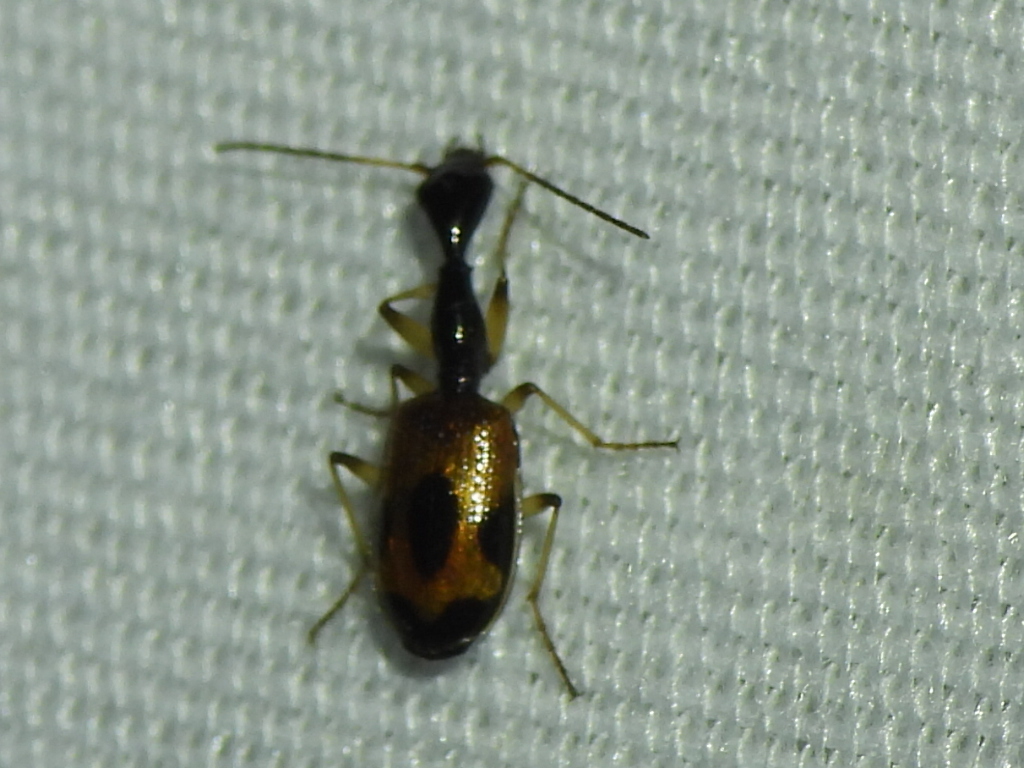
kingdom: Animalia
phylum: Arthropoda
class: Insecta
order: Coleoptera
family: Carabidae
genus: Colliuris
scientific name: Colliuris pensylvanica
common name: Long-necked ground beetle
